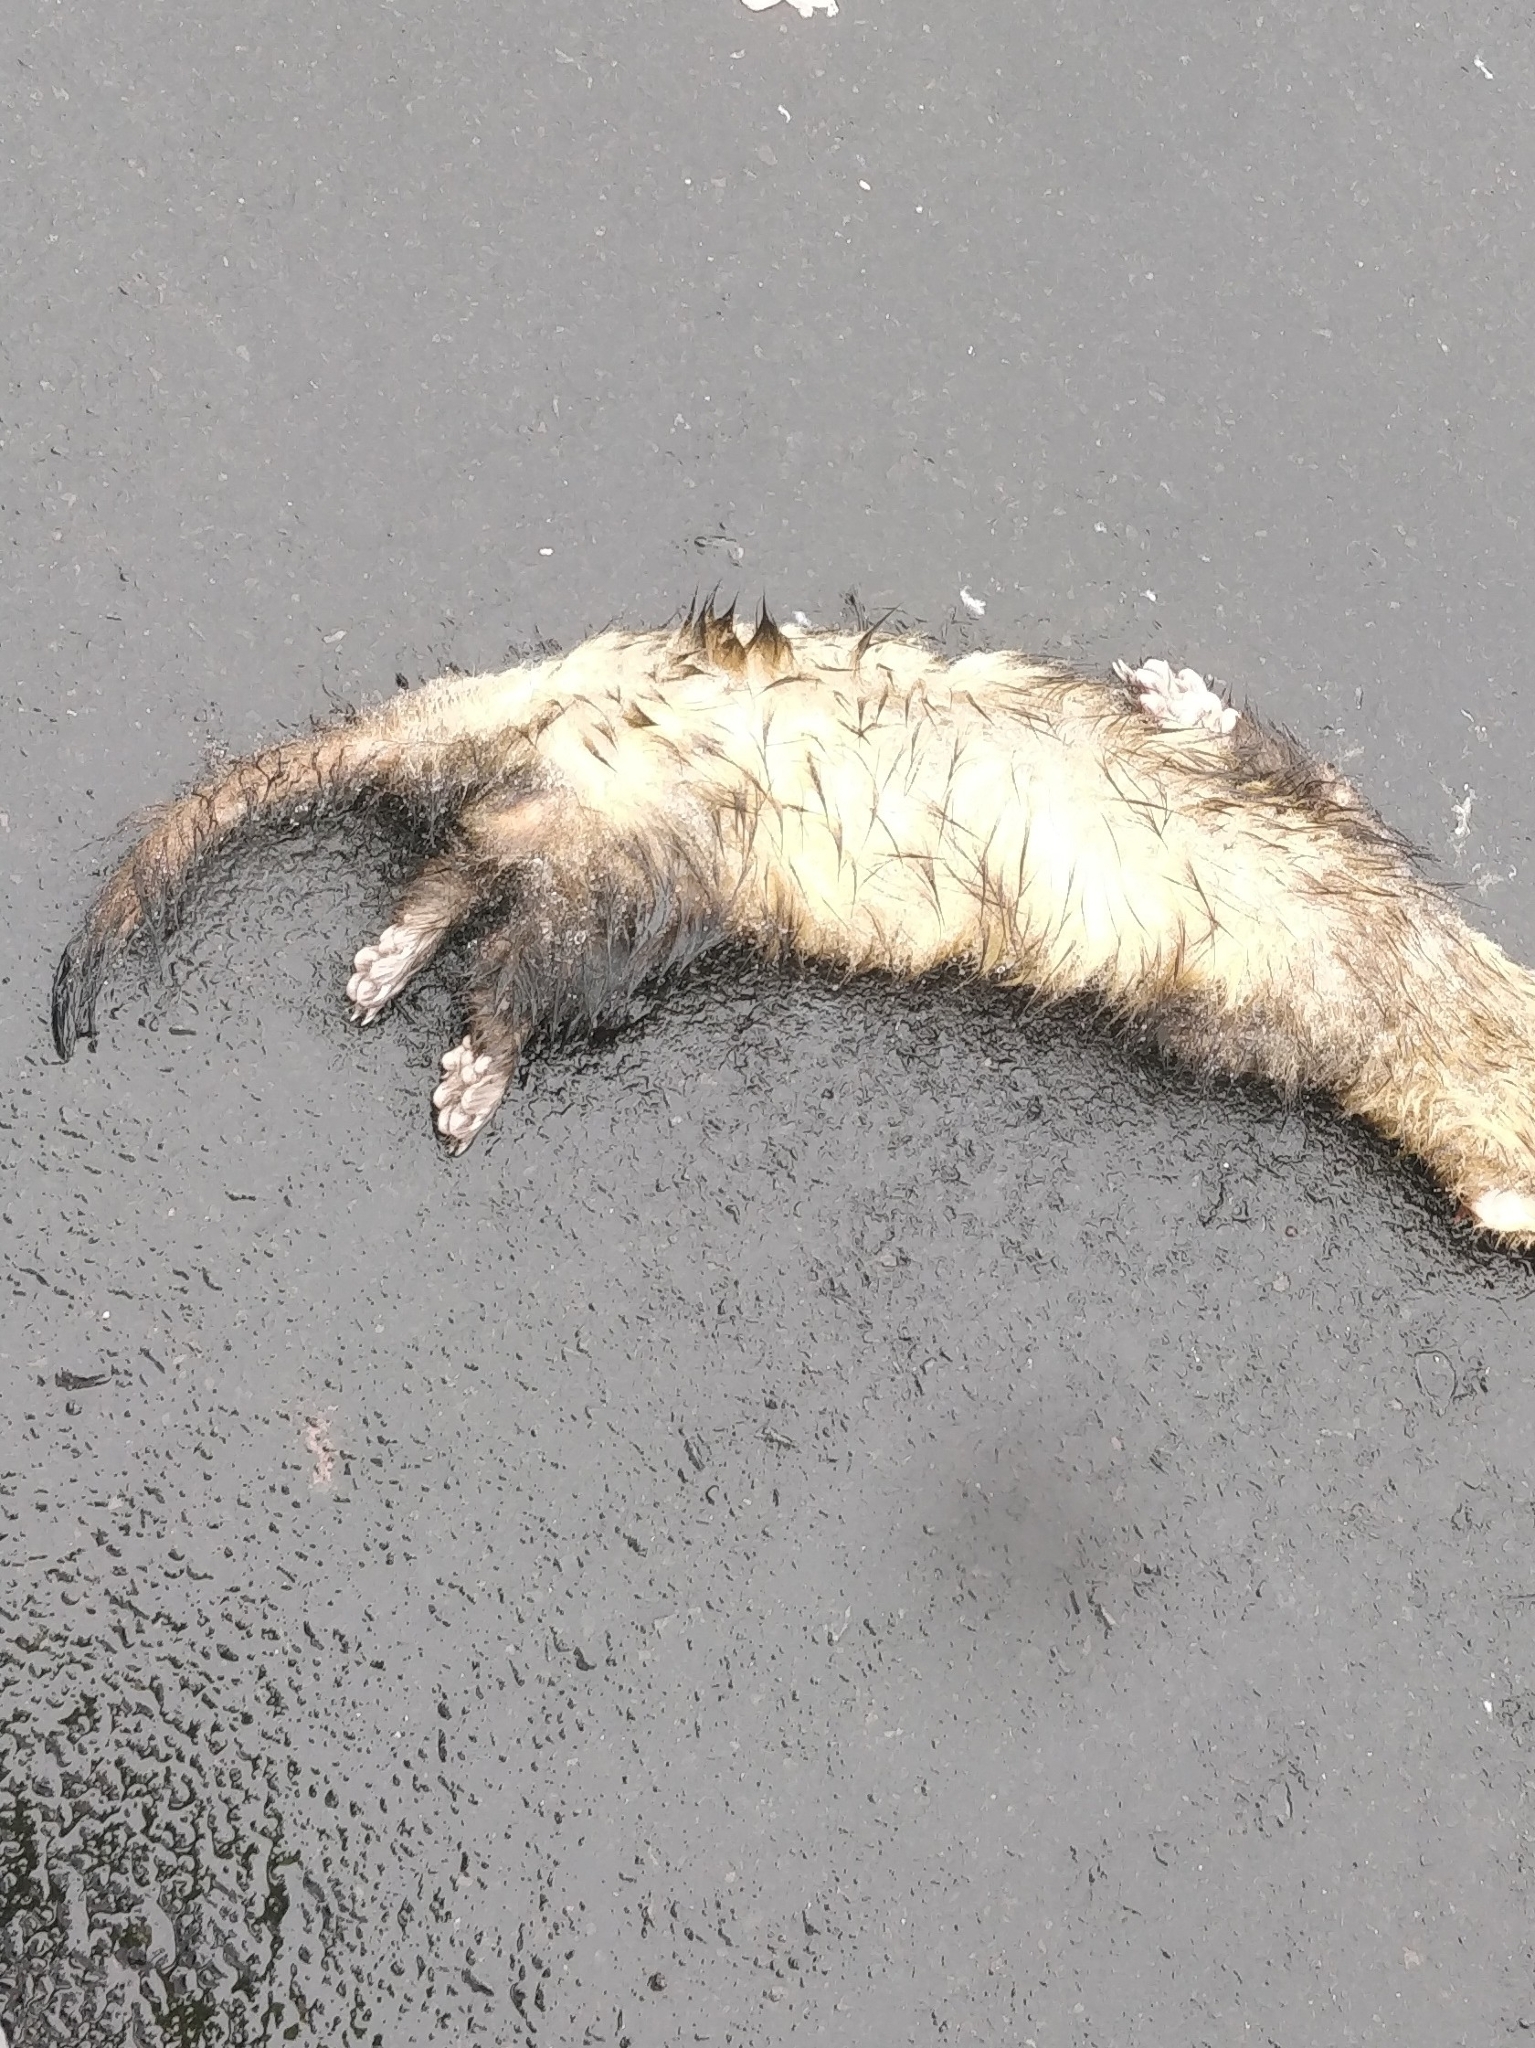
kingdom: Animalia
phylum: Chordata
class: Mammalia
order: Carnivora
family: Mustelidae
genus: Mustela
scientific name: Mustela putorius
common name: European polecat
